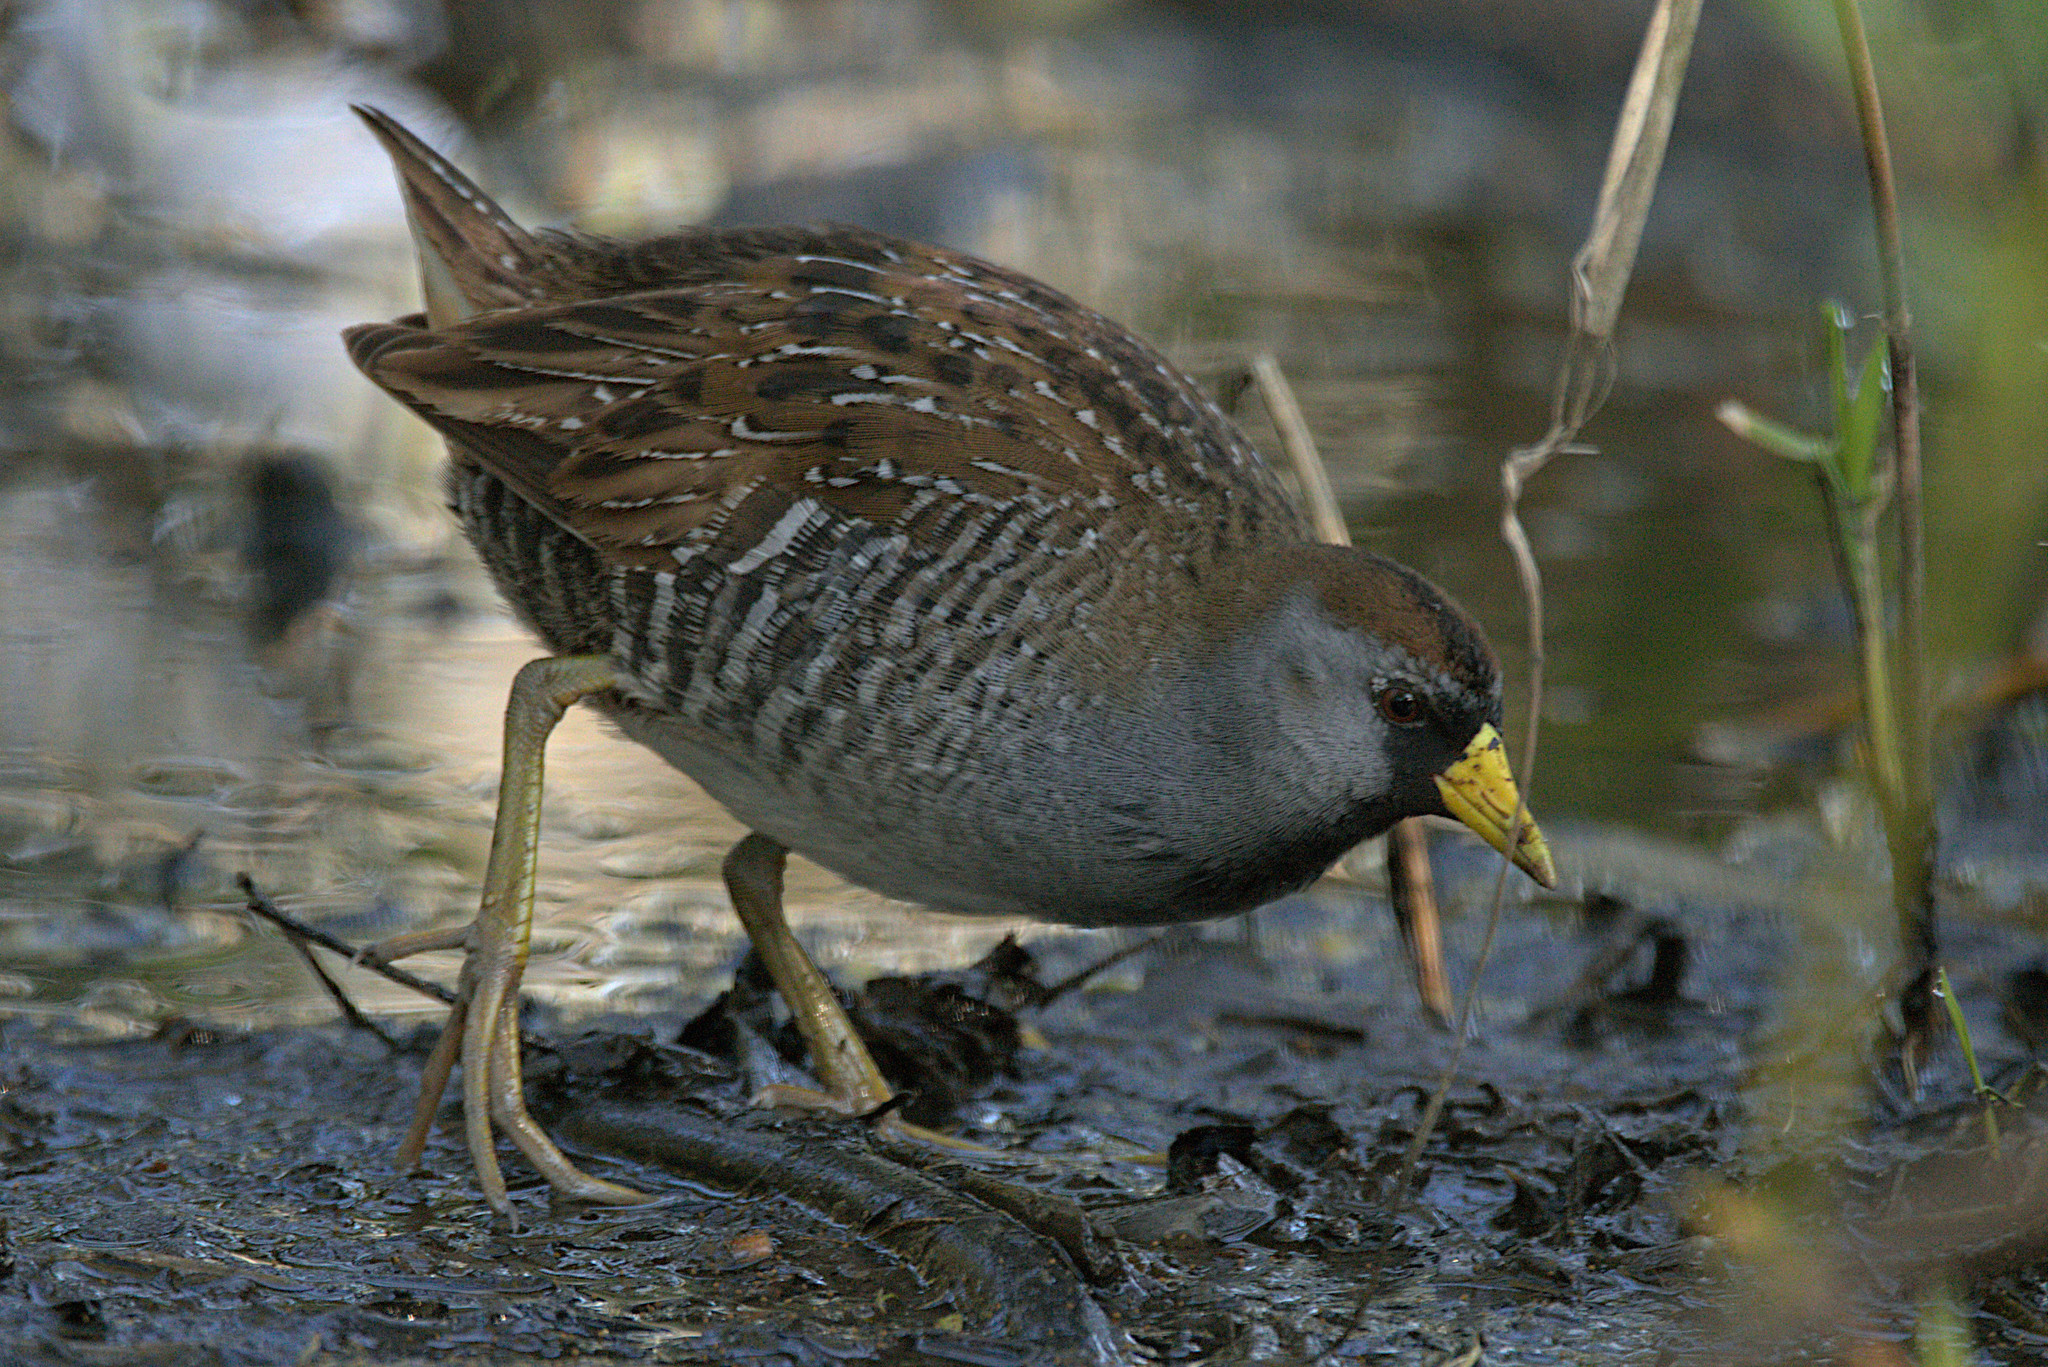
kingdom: Animalia
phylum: Chordata
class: Aves
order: Gruiformes
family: Rallidae
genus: Porzana
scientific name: Porzana carolina
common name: Sora
